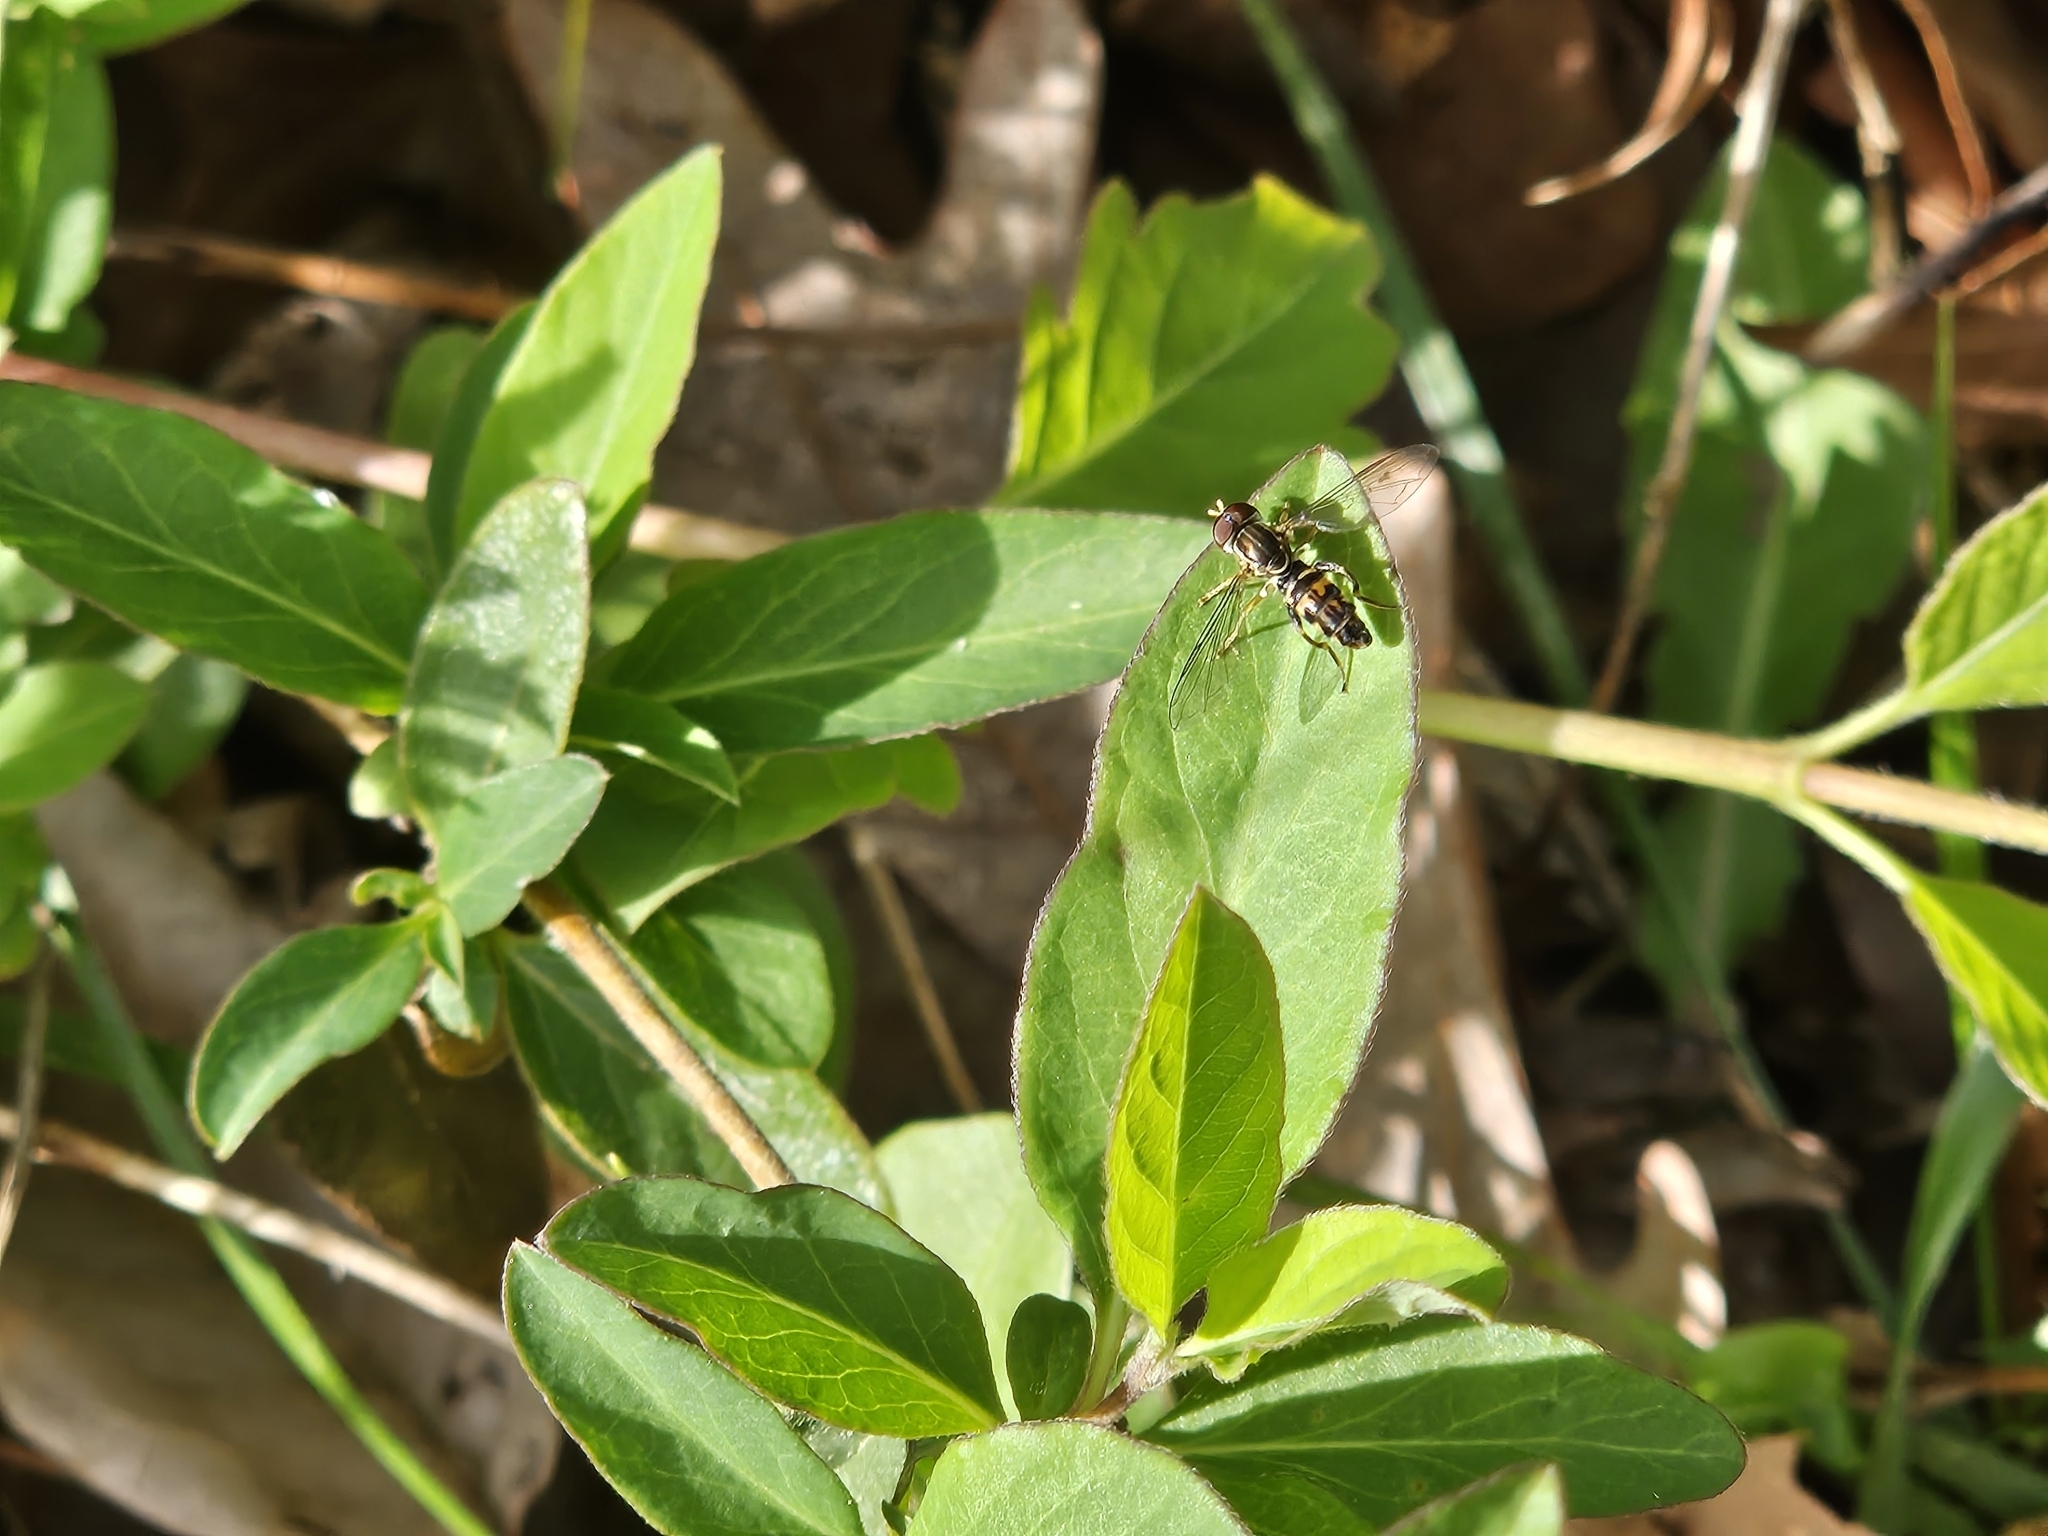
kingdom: Animalia
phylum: Arthropoda
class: Insecta
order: Diptera
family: Syrphidae
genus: Toxomerus
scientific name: Toxomerus geminatus
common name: Eastern calligrapher
